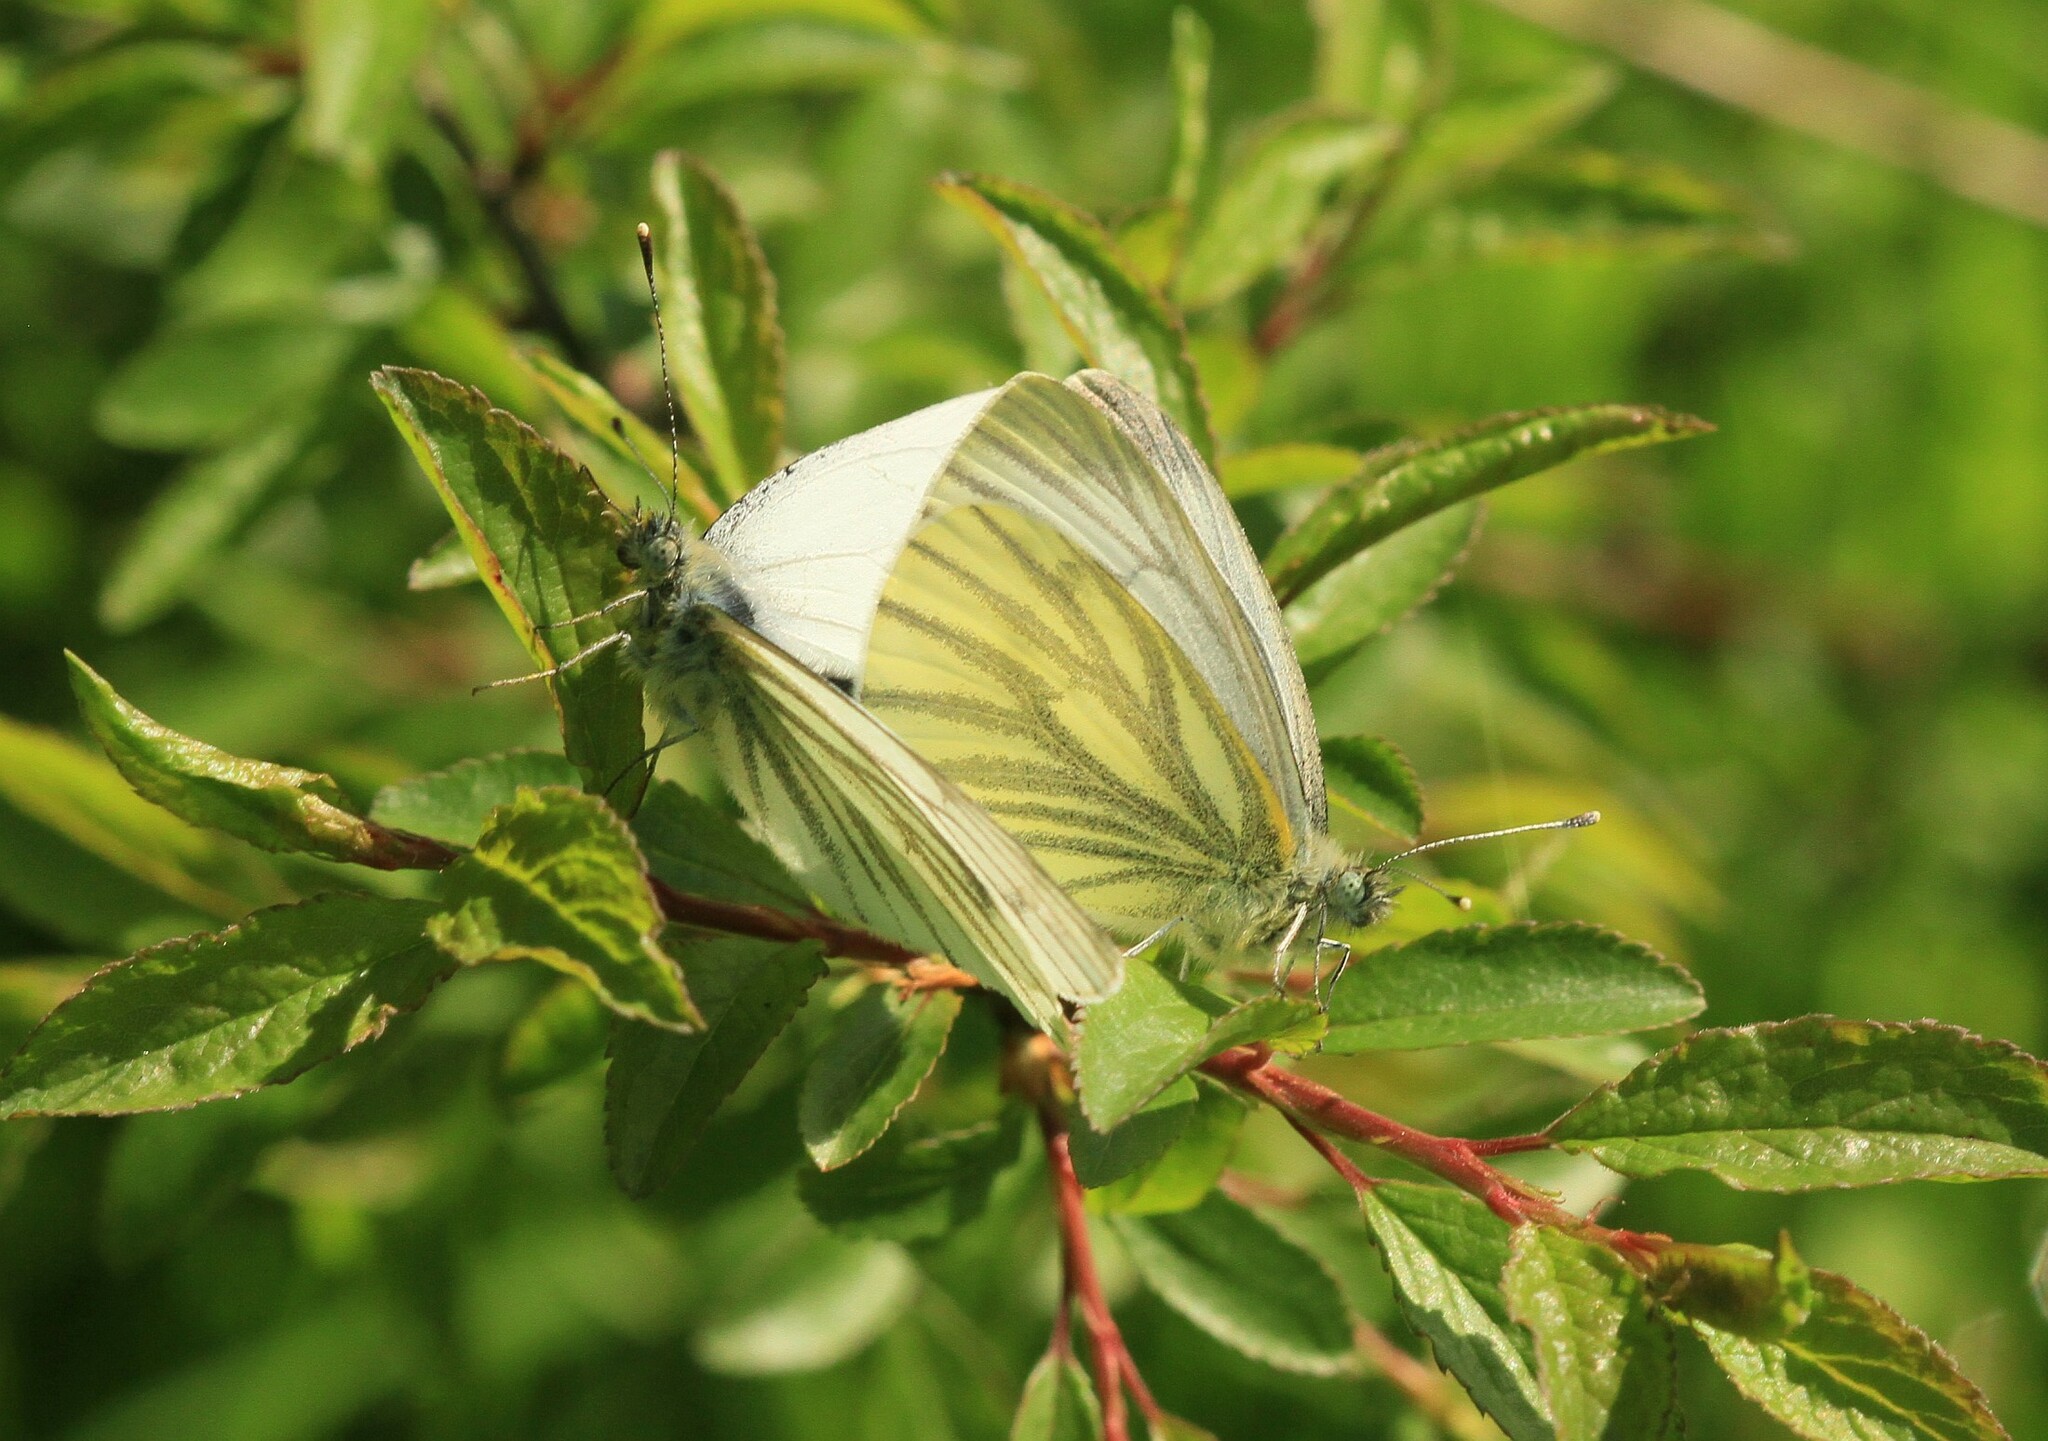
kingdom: Animalia
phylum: Arthropoda
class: Insecta
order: Lepidoptera
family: Pieridae
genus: Pieris
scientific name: Pieris napi
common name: Green-veined white
